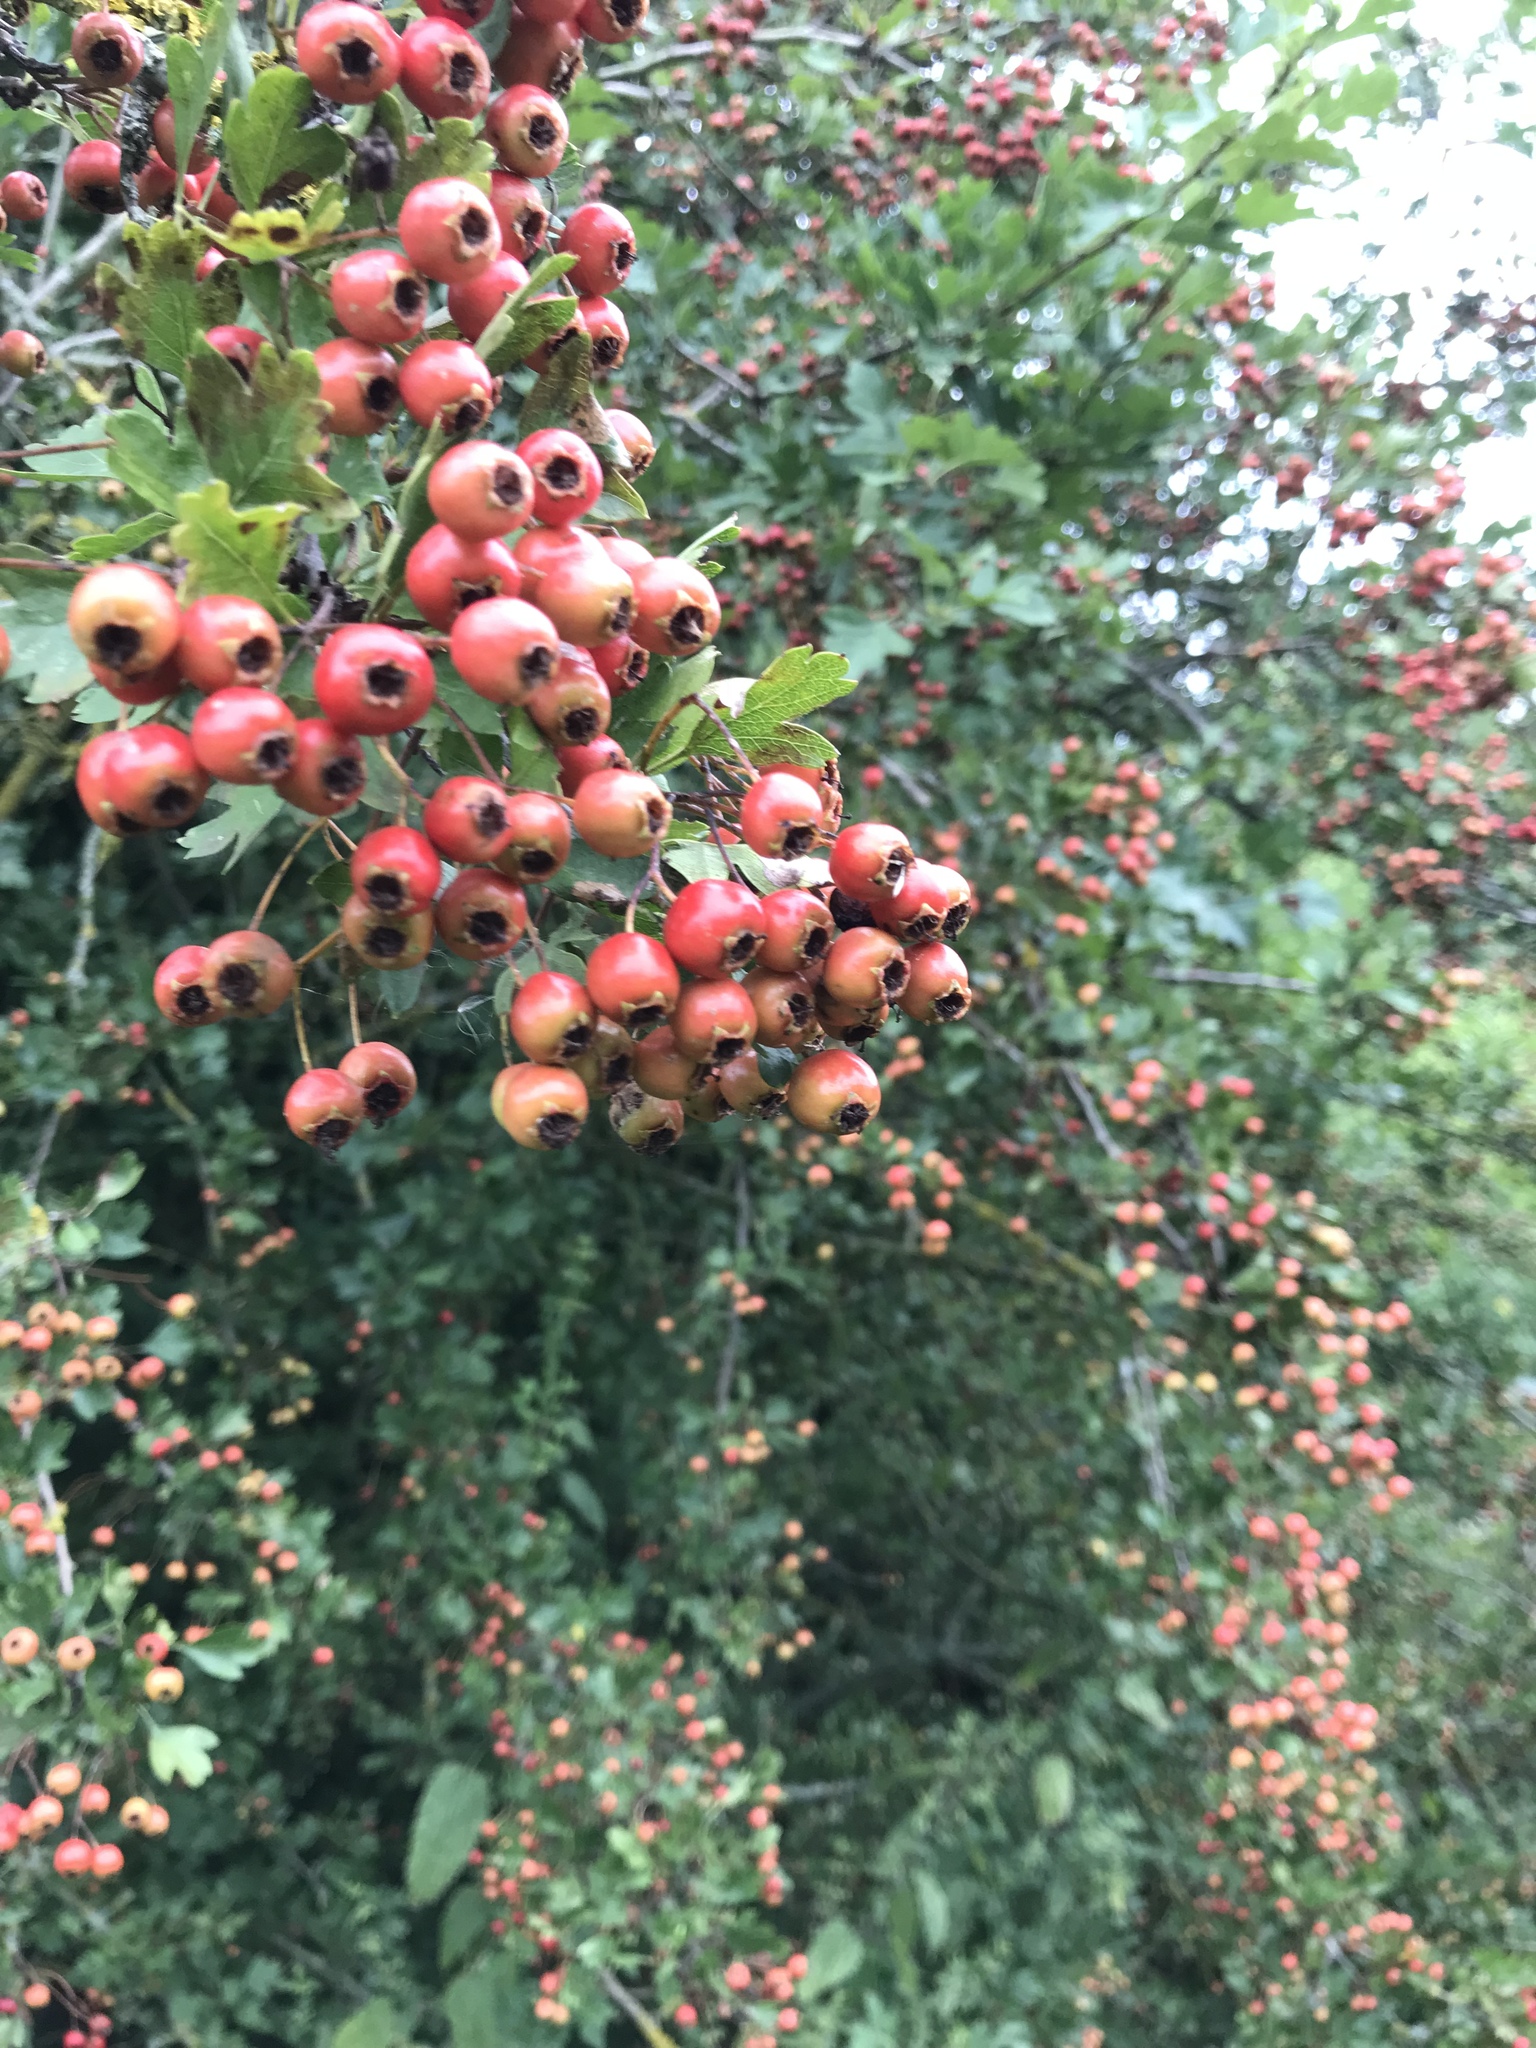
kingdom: Plantae
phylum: Tracheophyta
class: Magnoliopsida
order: Rosales
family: Rosaceae
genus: Crataegus
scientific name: Crataegus monogyna
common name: Hawthorn
